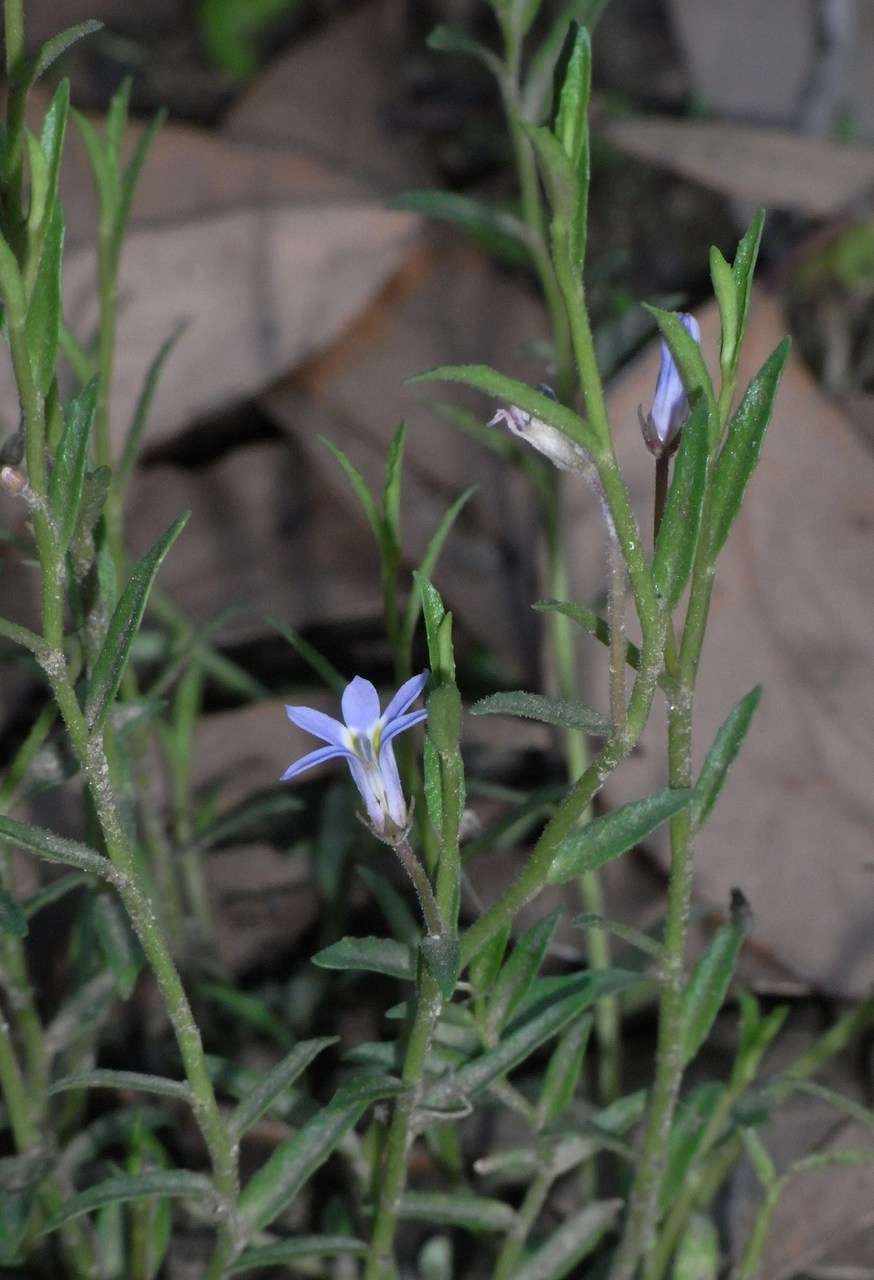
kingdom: Plantae
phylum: Tracheophyta
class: Magnoliopsida
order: Asterales
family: Campanulaceae
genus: Lobelia
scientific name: Lobelia pratioides
